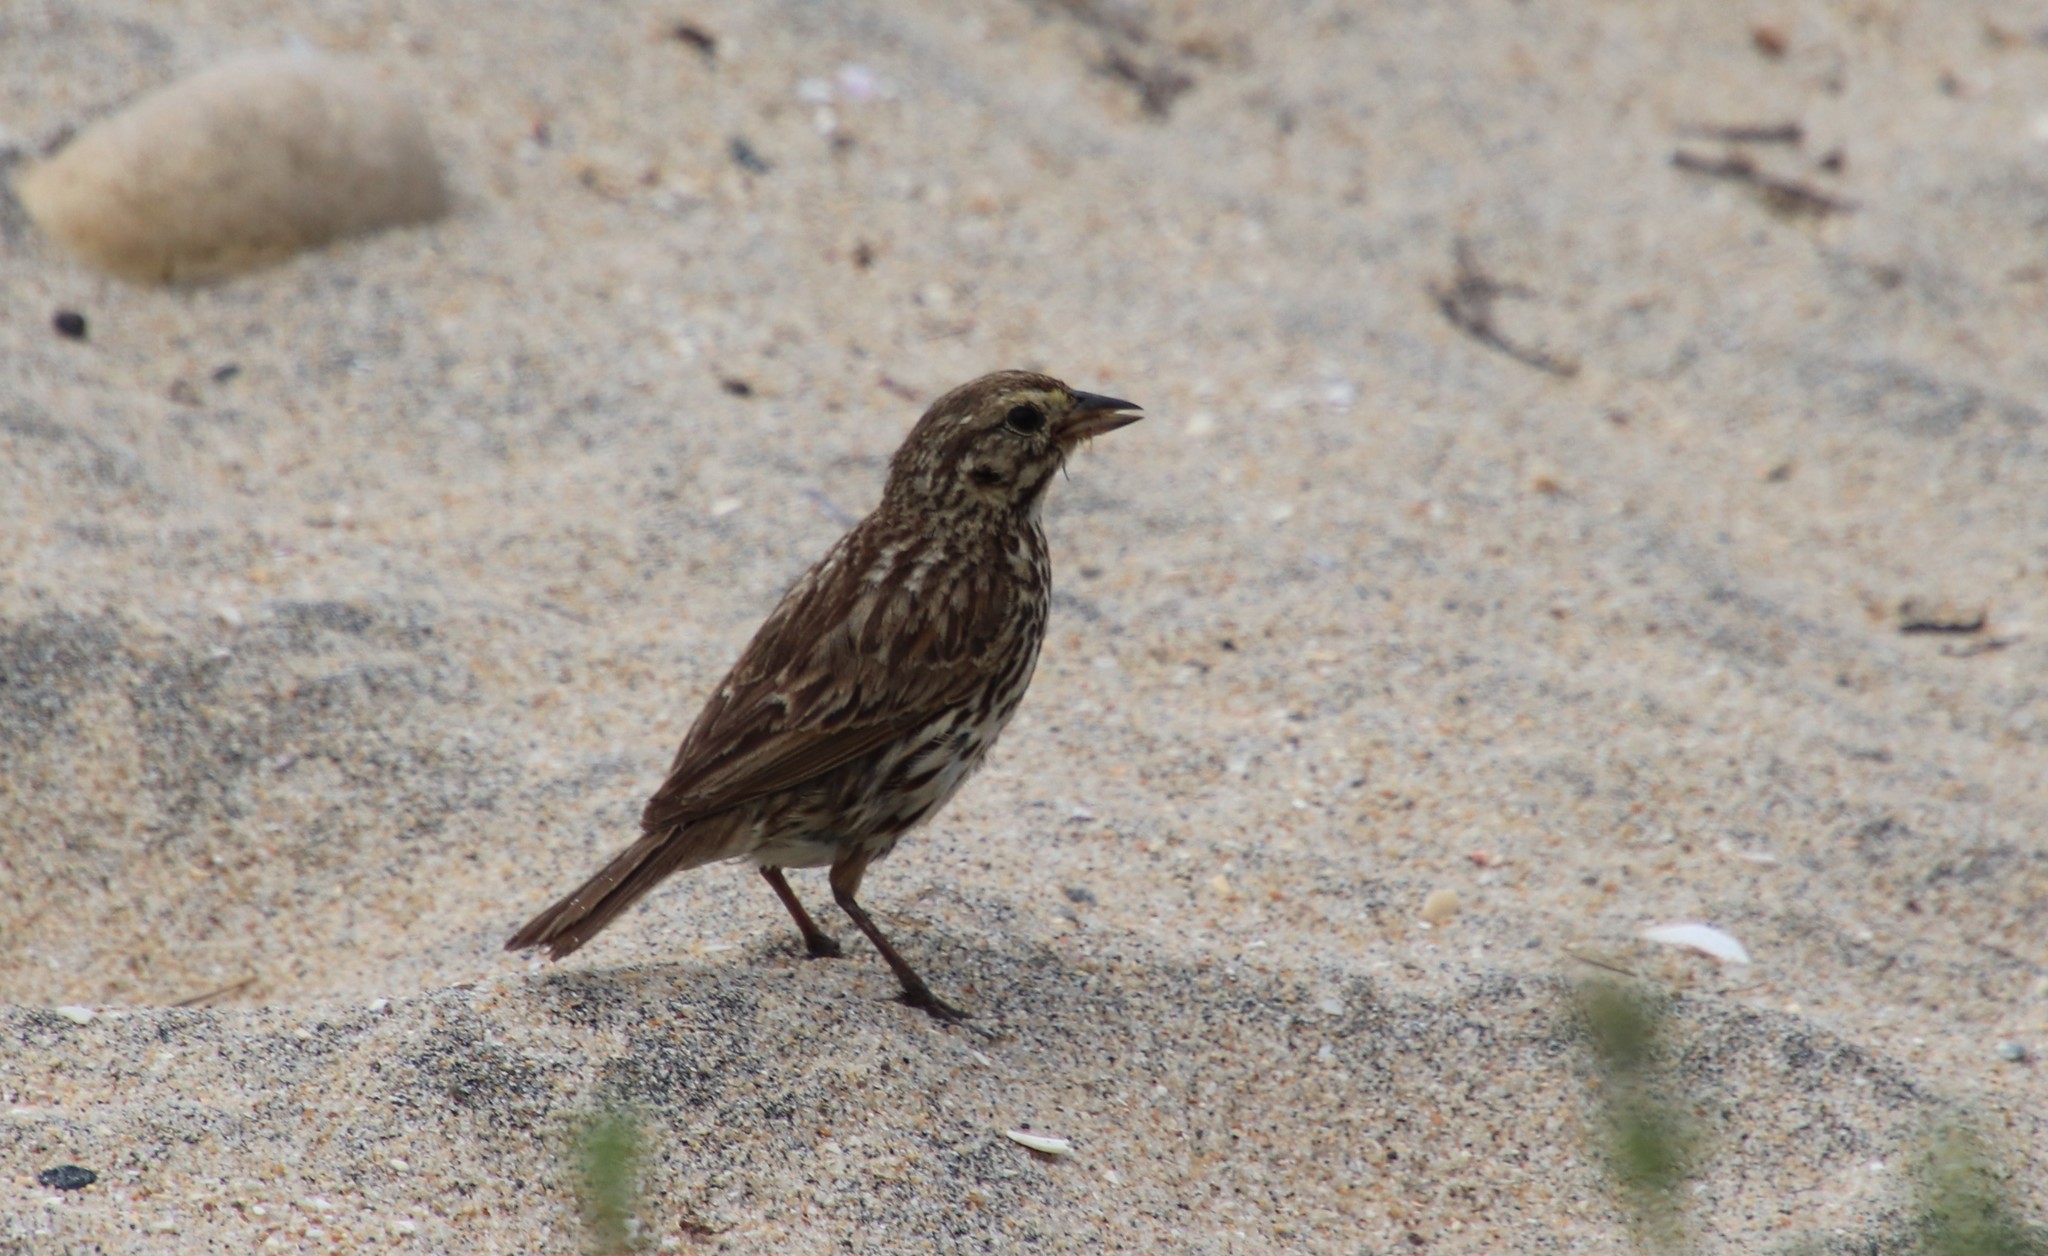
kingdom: Animalia
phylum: Chordata
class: Aves
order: Passeriformes
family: Passerellidae
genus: Passerculus
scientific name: Passerculus sandwichensis
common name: Savannah sparrow
